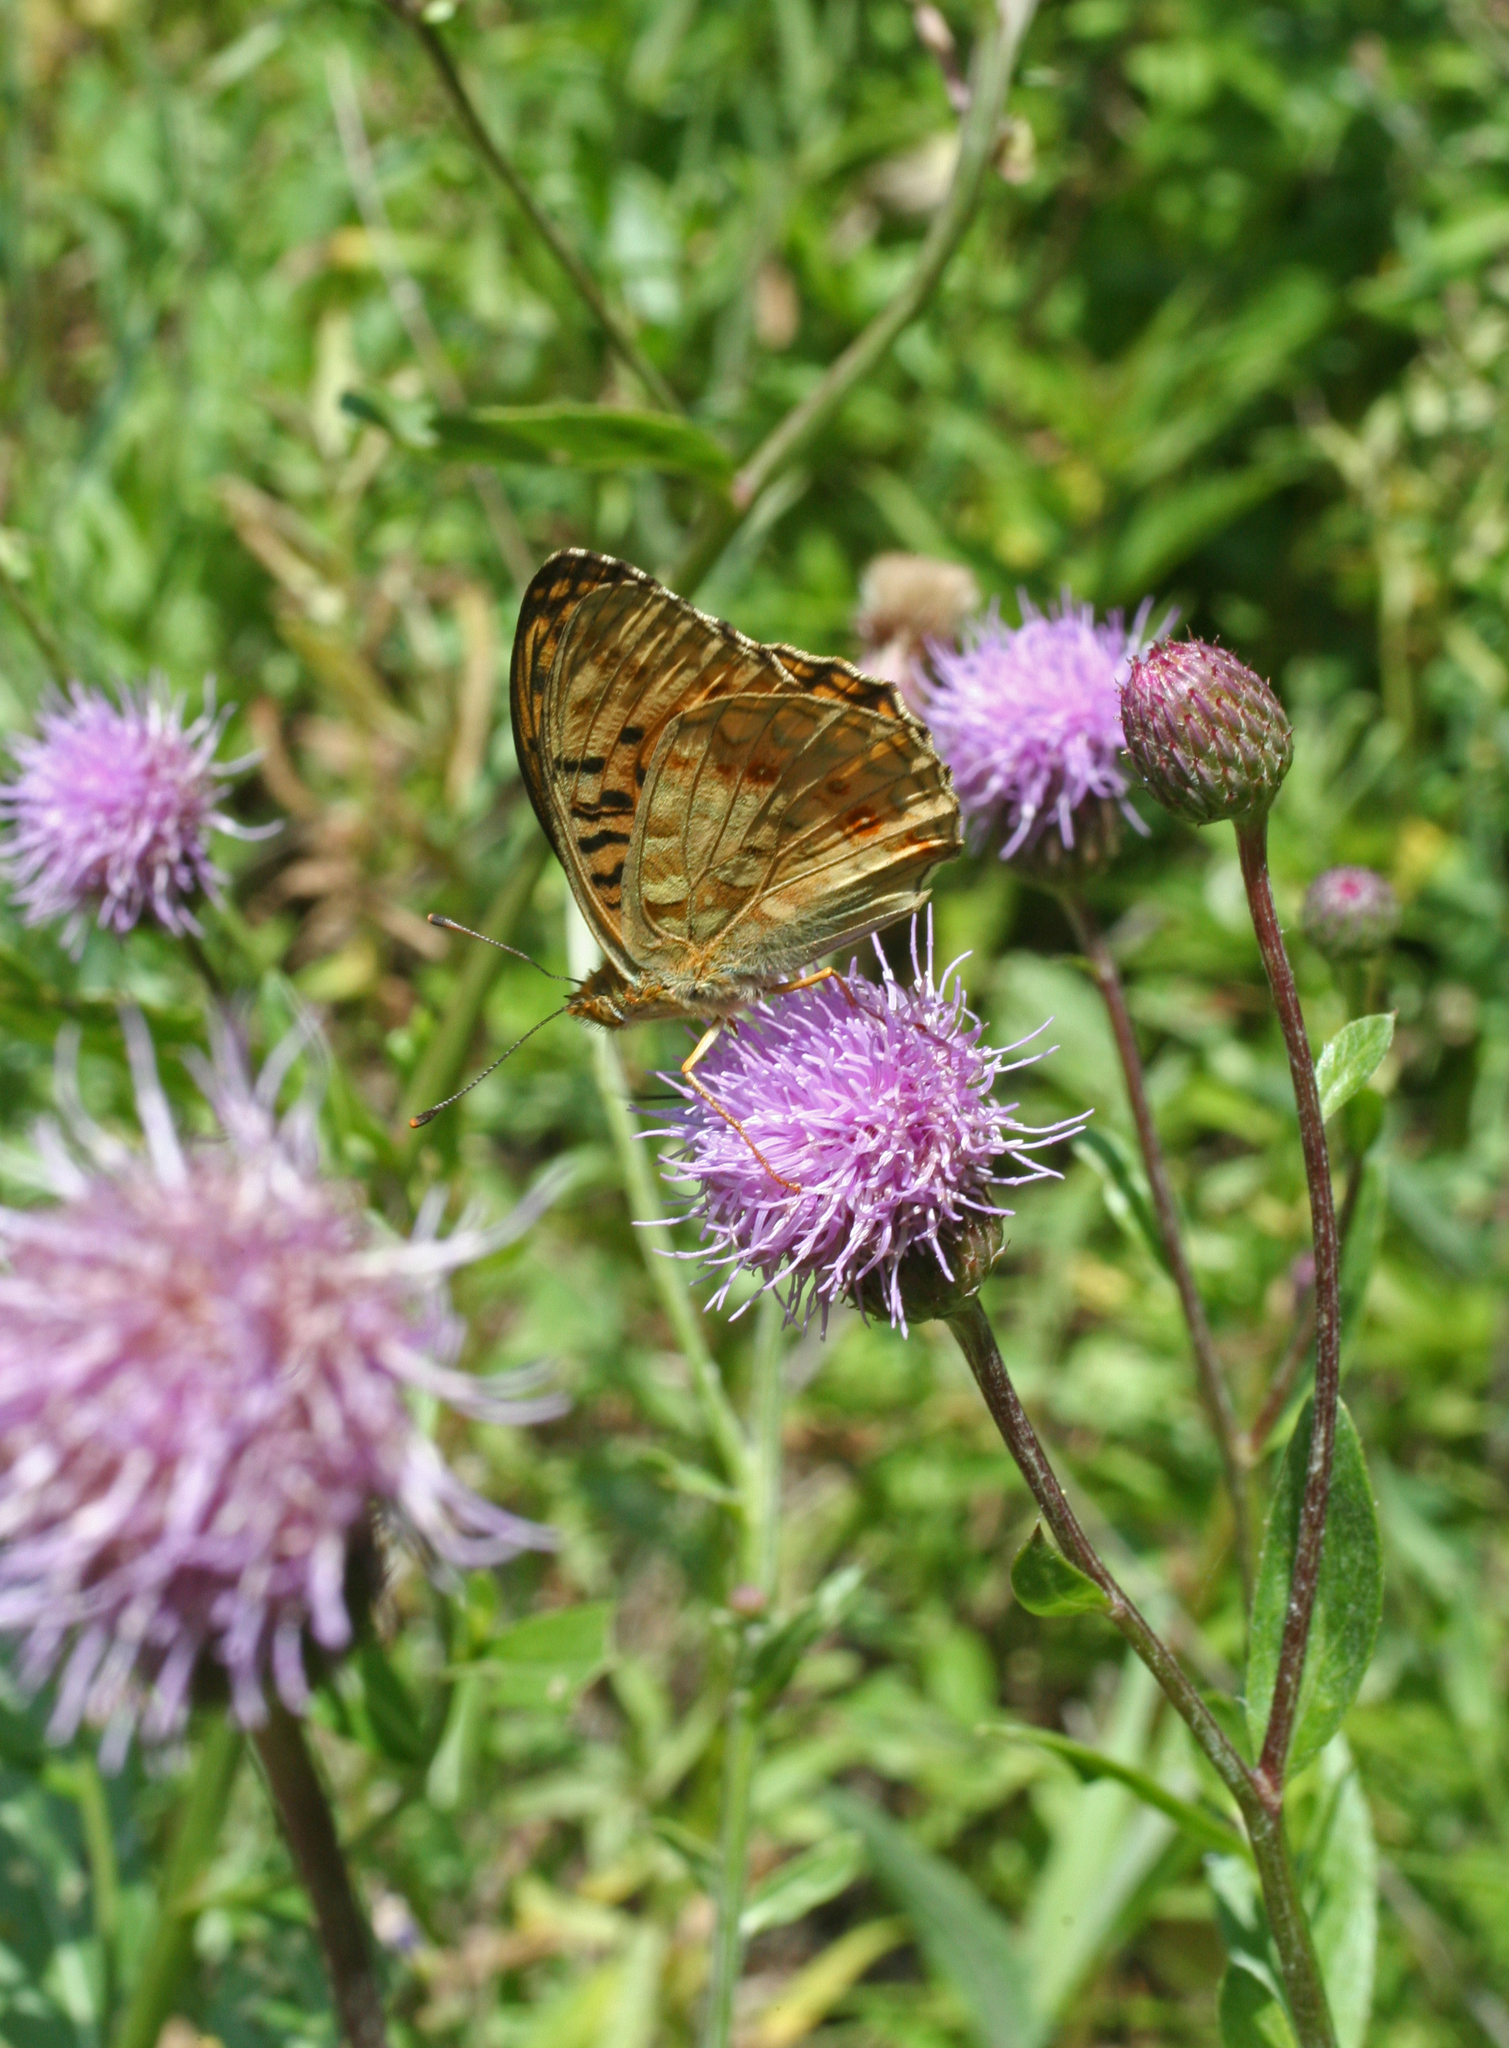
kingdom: Animalia
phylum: Arthropoda
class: Insecta
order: Lepidoptera
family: Nymphalidae
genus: Fabriciana
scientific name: Fabriciana adippe
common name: High brown fritillary
